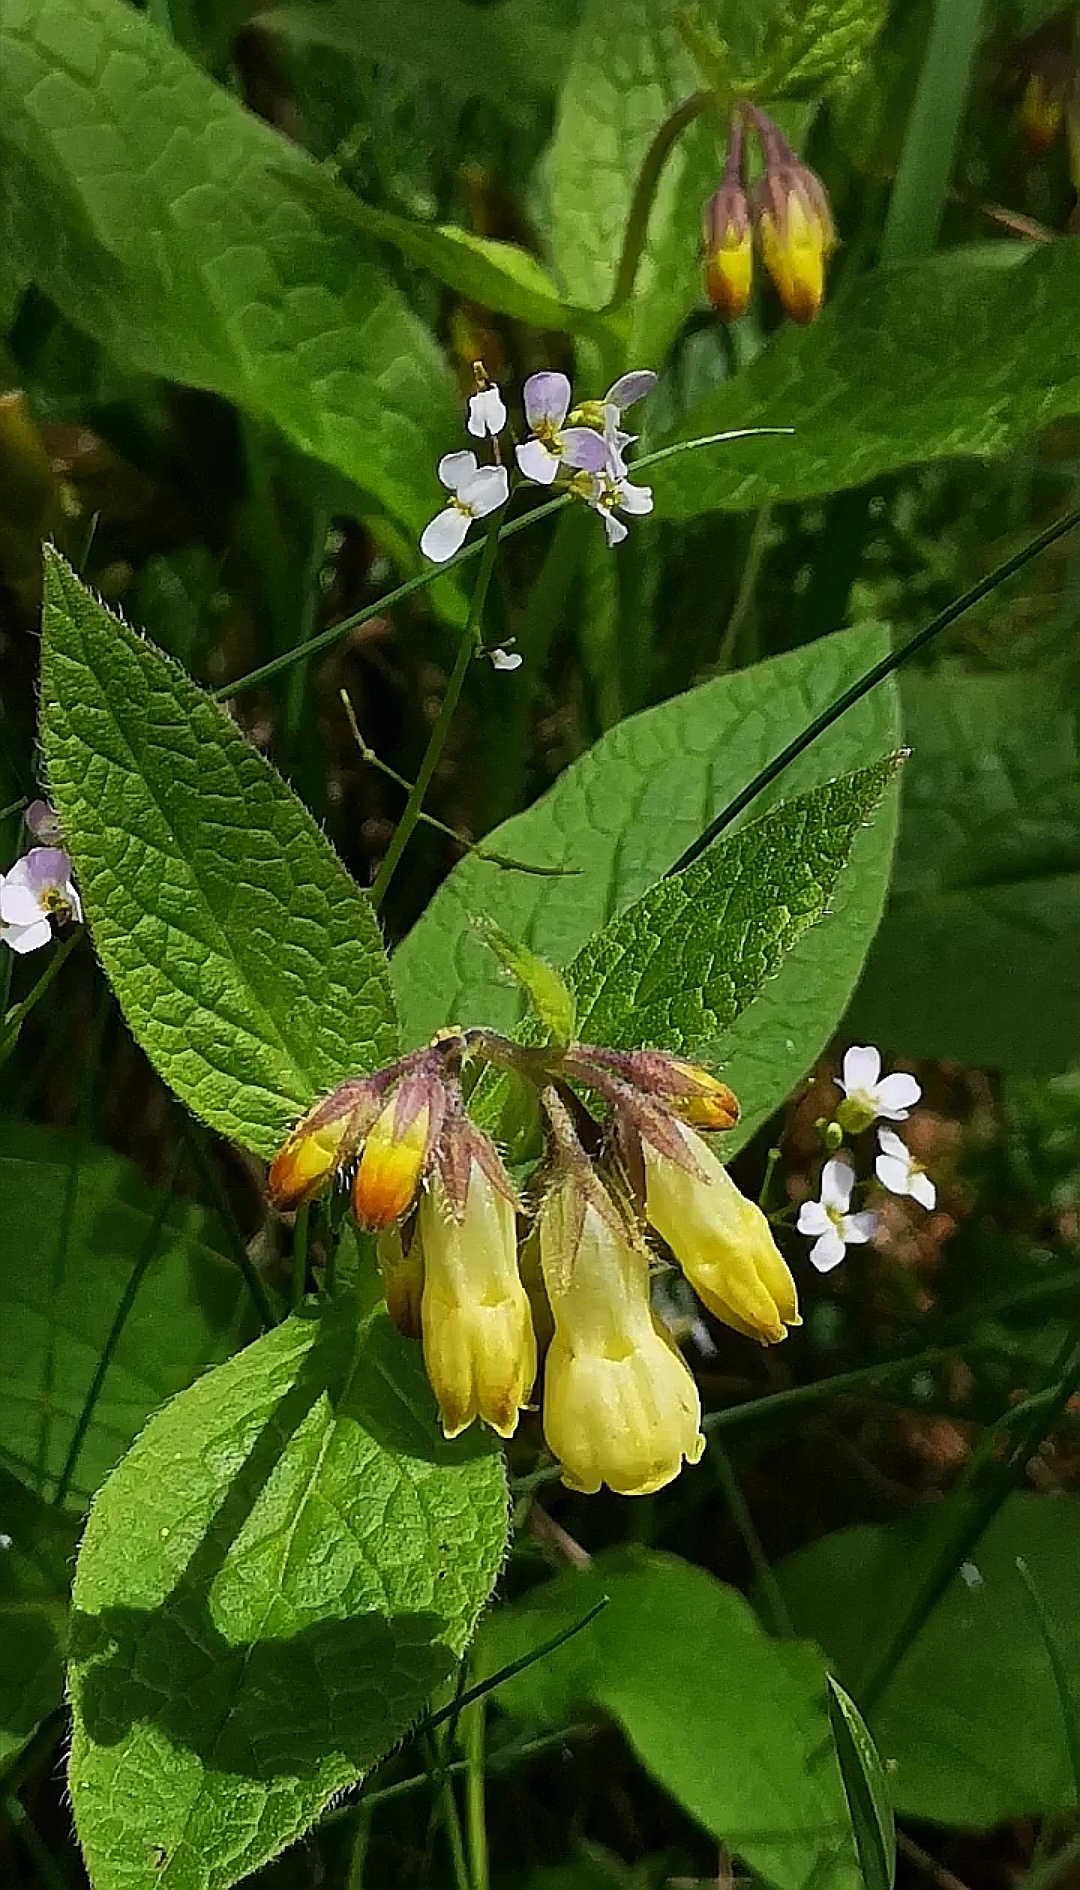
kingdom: Plantae
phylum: Tracheophyta
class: Magnoliopsida
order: Boraginales
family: Boraginaceae
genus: Symphytum
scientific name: Symphytum tuberosum
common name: Tuberous comfrey
